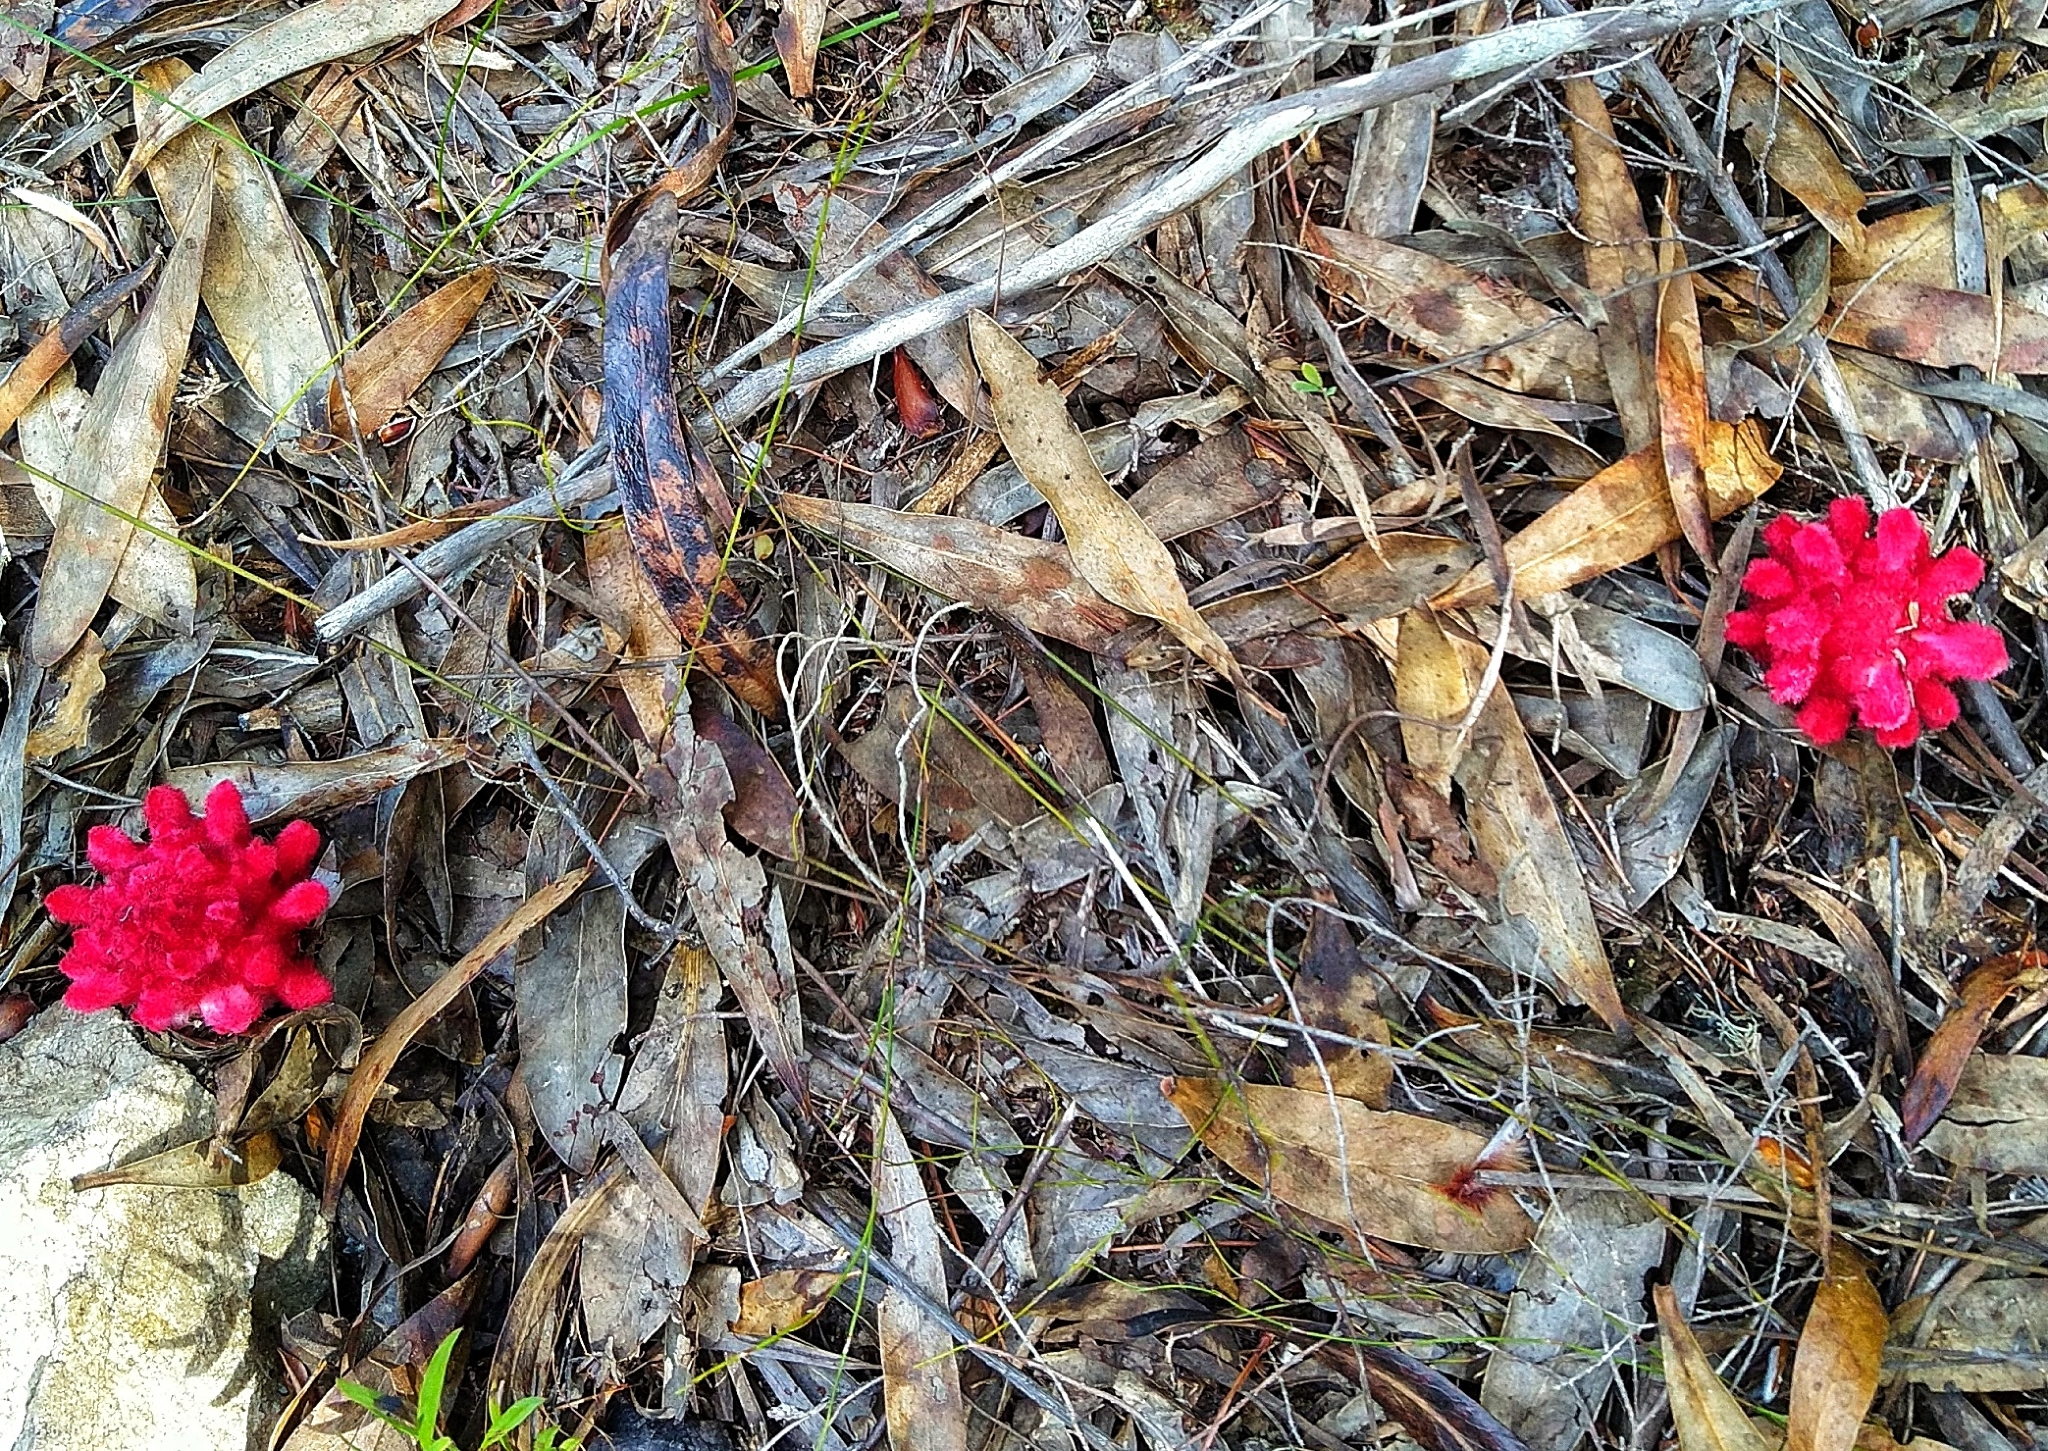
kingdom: Plantae
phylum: Tracheophyta
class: Magnoliopsida
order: Lamiales
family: Orobanchaceae
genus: Hyobanche
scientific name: Hyobanche sanguinea
